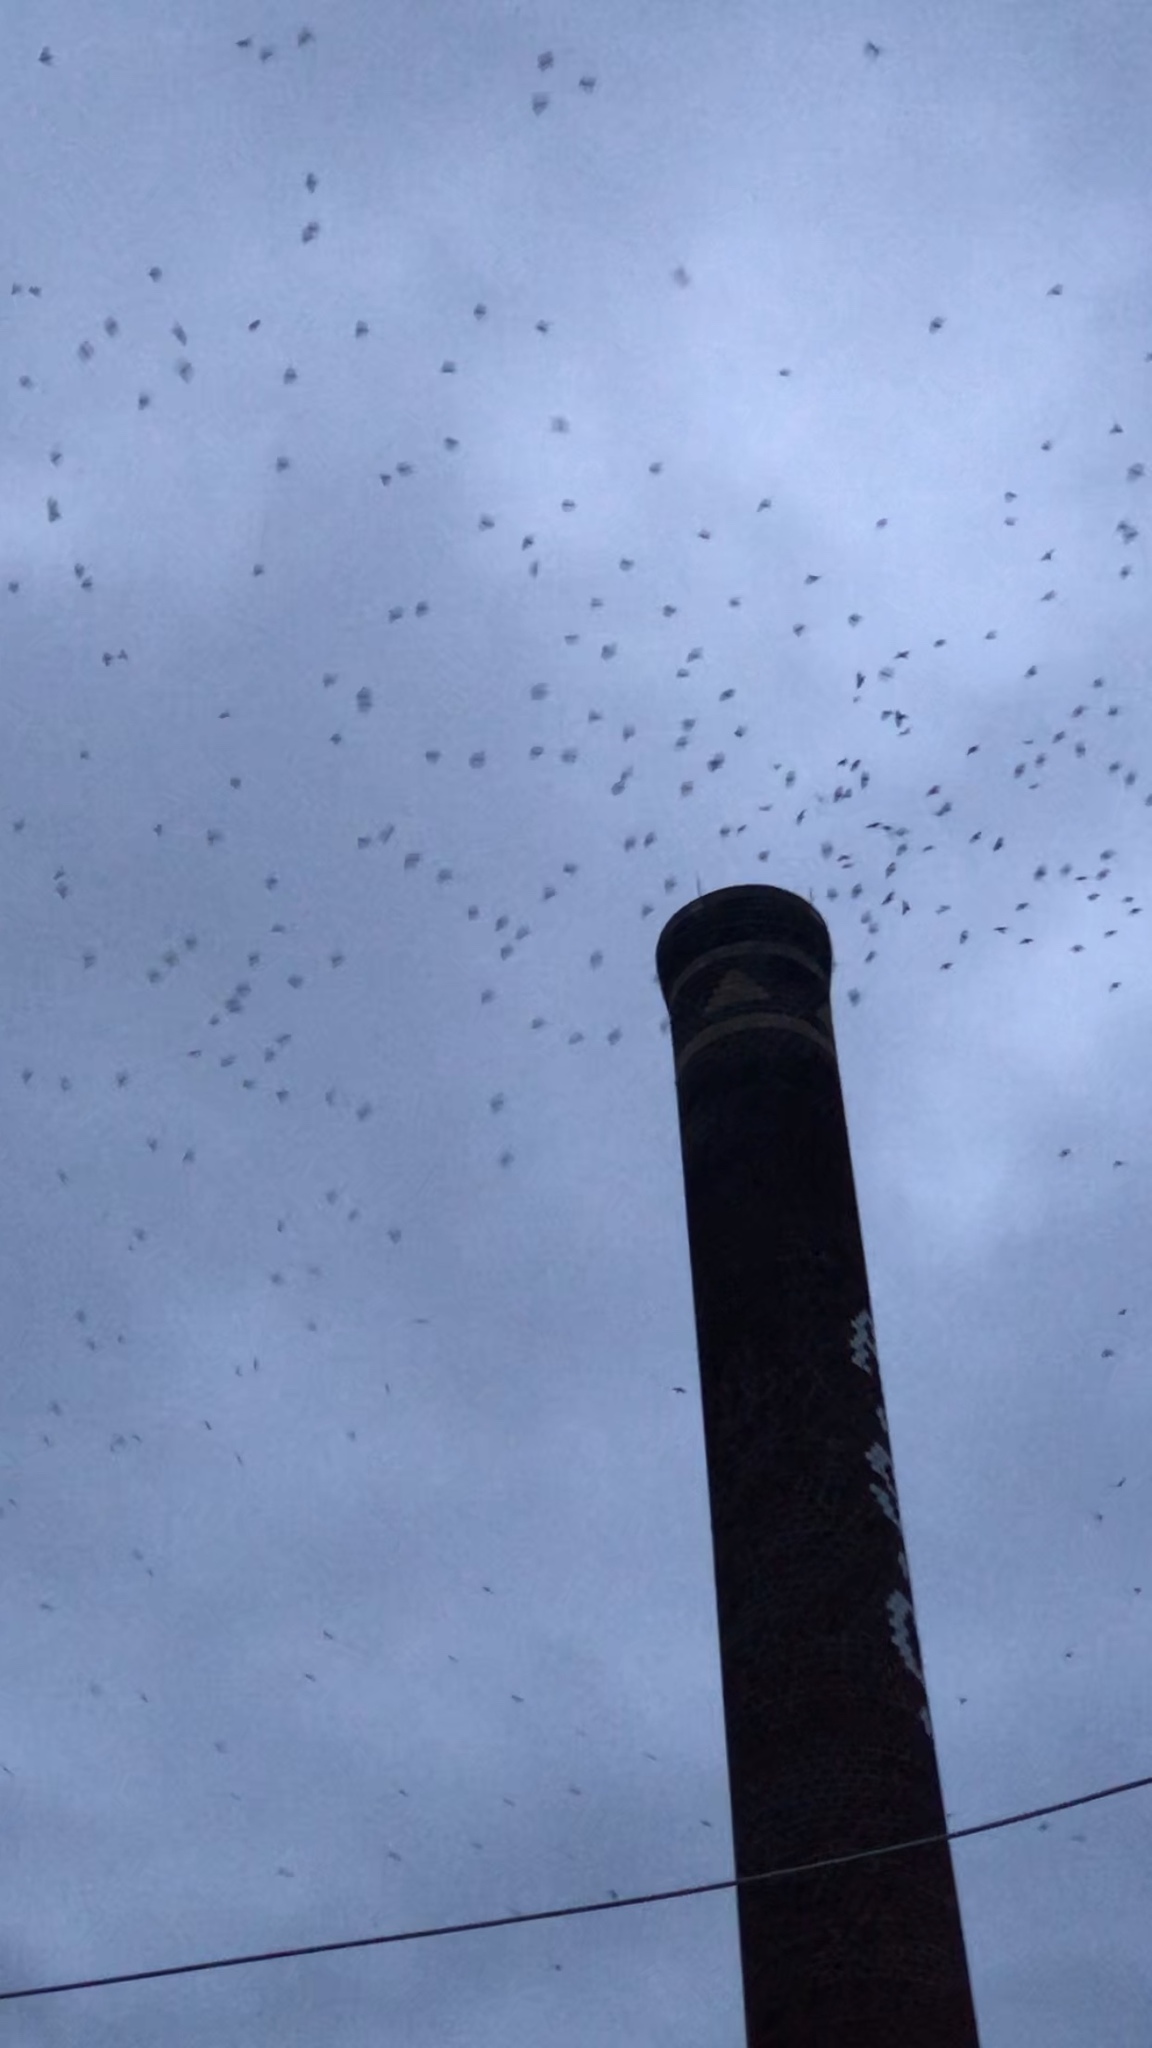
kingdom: Animalia
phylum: Chordata
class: Aves
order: Apodiformes
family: Apodidae
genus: Chaetura
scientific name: Chaetura pelagica
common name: Chimney swift
